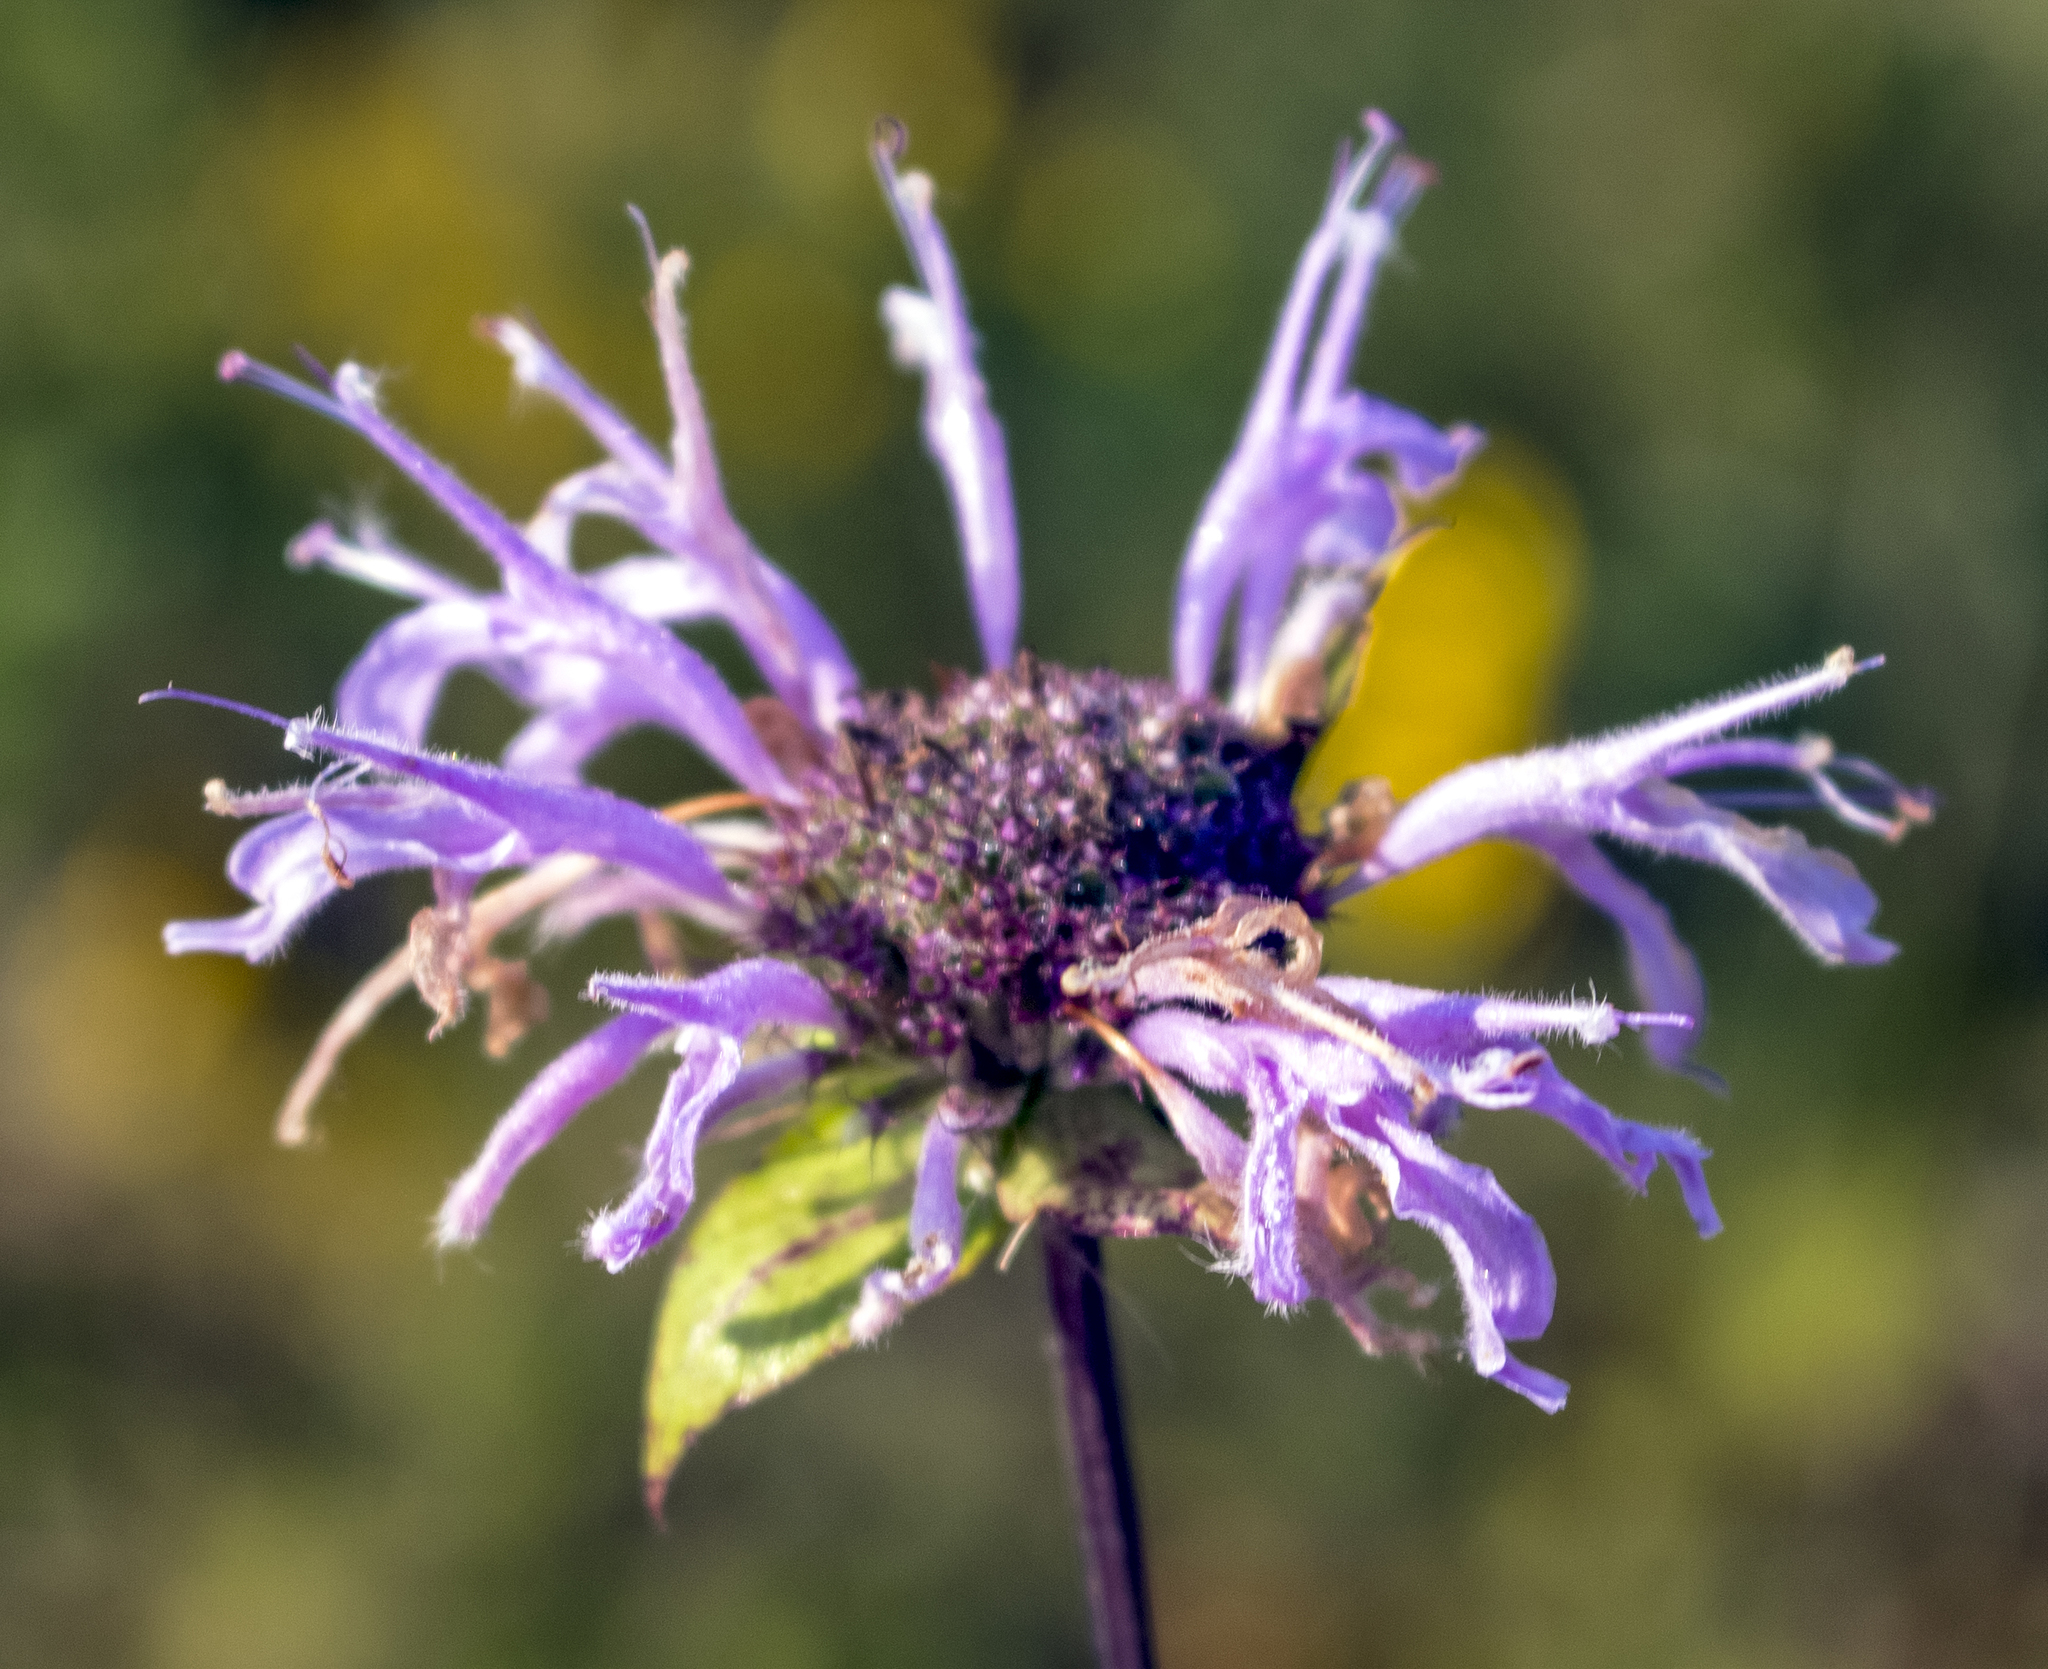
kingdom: Plantae
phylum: Tracheophyta
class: Magnoliopsida
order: Lamiales
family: Lamiaceae
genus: Monarda
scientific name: Monarda fistulosa
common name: Purple beebalm
